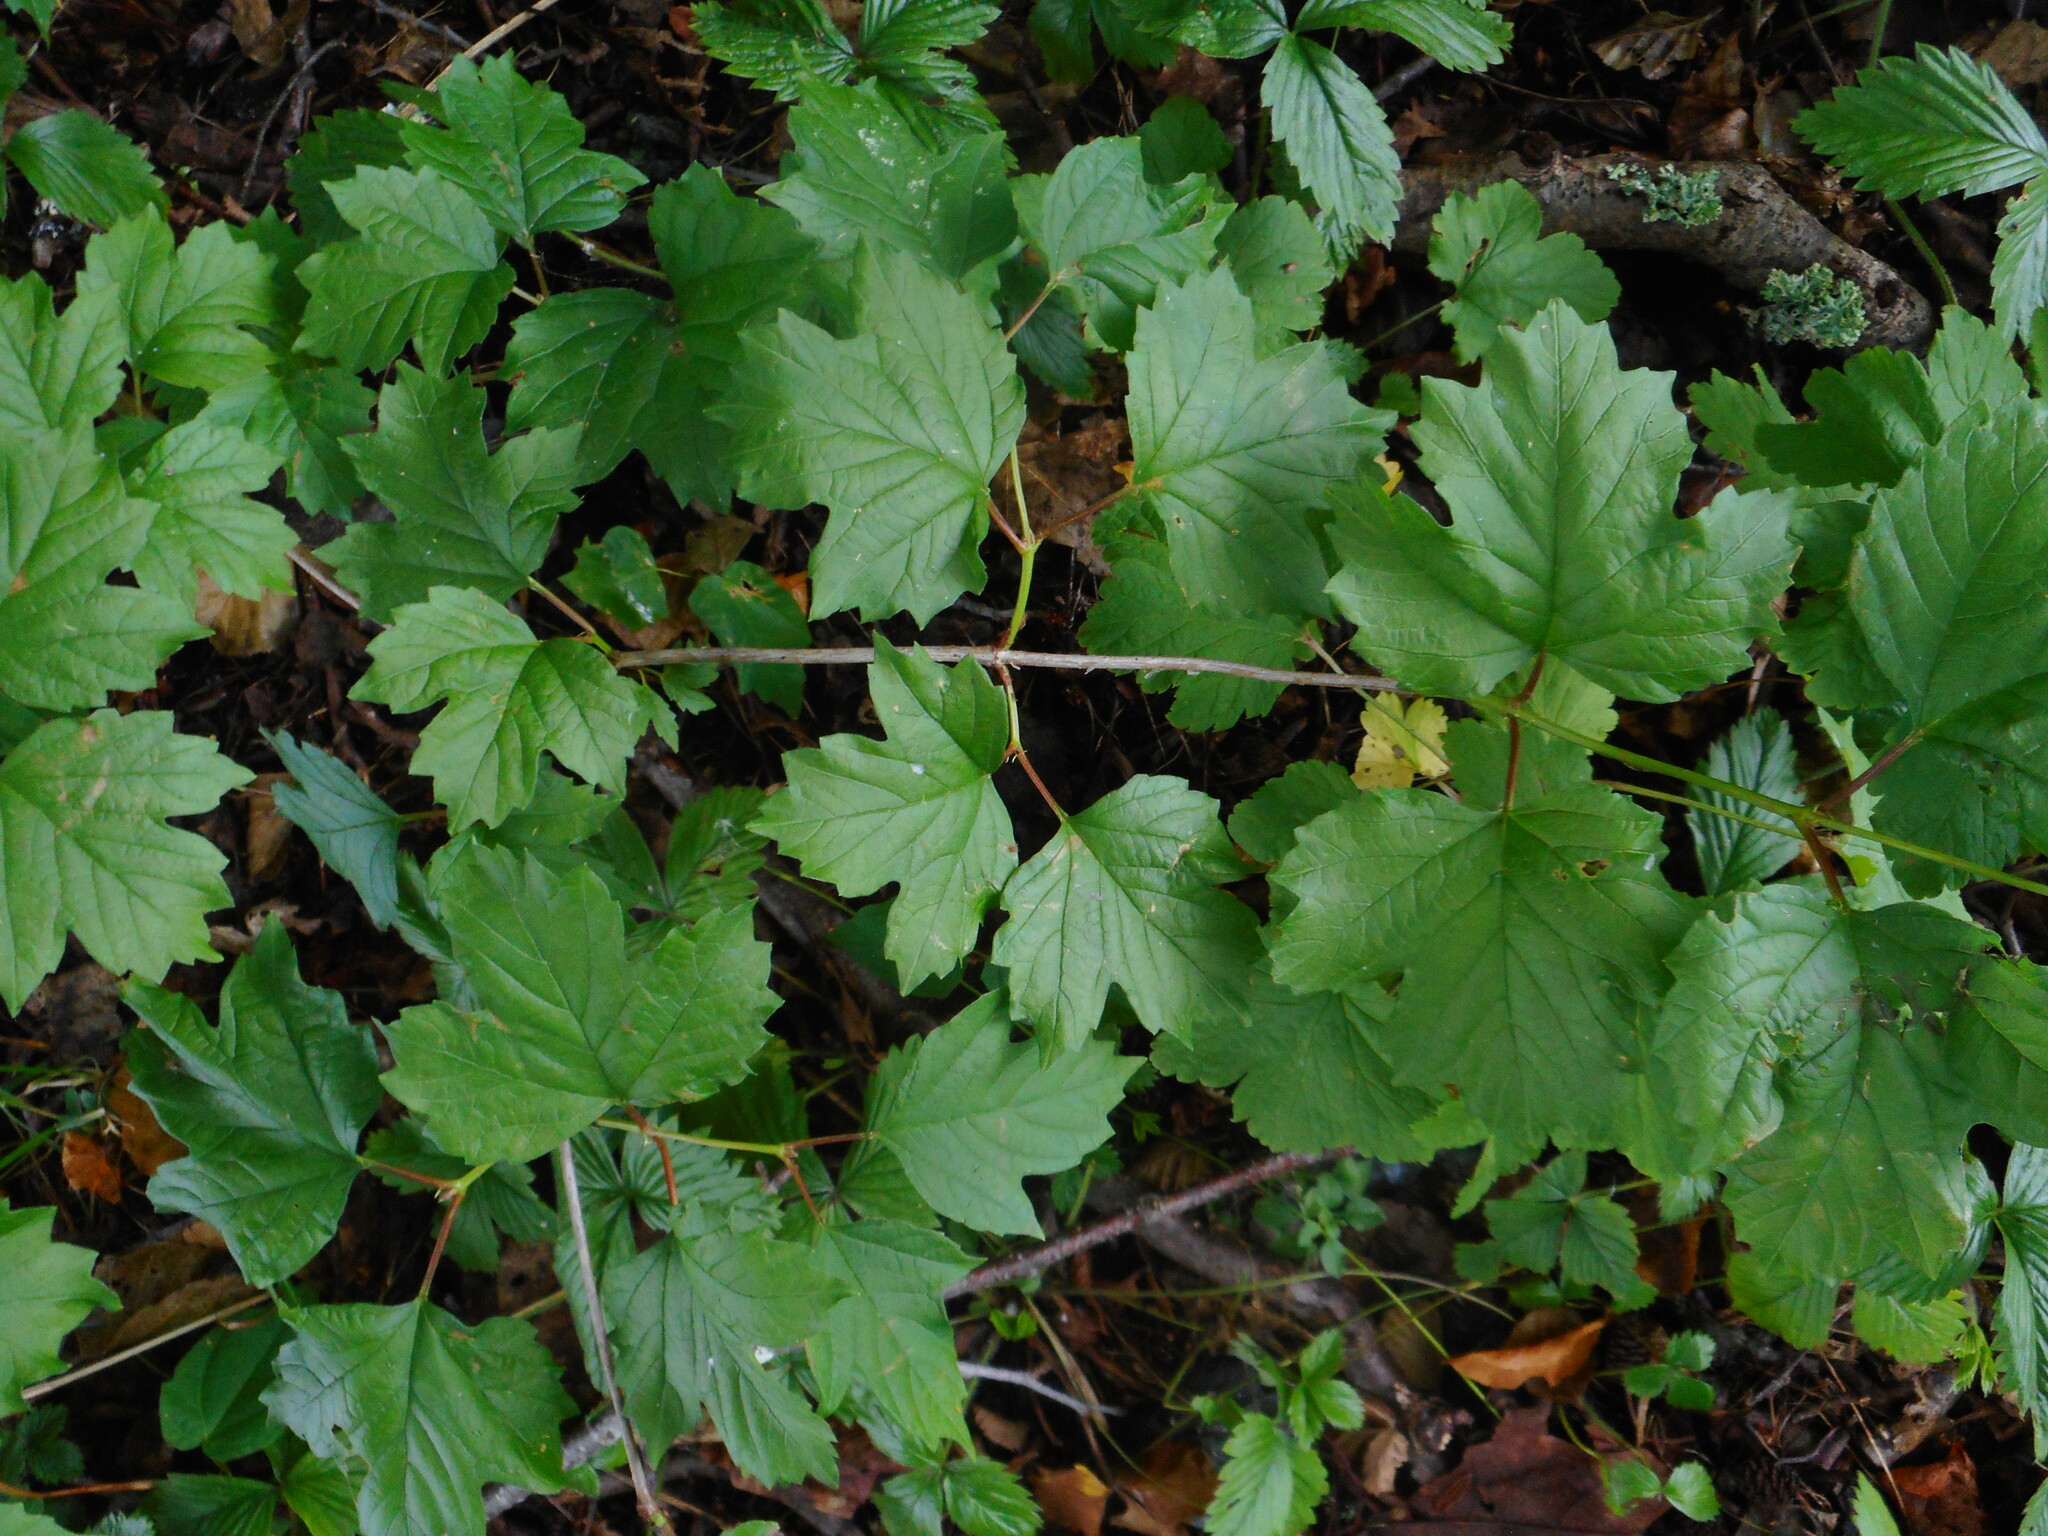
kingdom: Plantae
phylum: Tracheophyta
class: Magnoliopsida
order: Dipsacales
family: Viburnaceae
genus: Viburnum
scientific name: Viburnum opulus
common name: Guelder-rose
